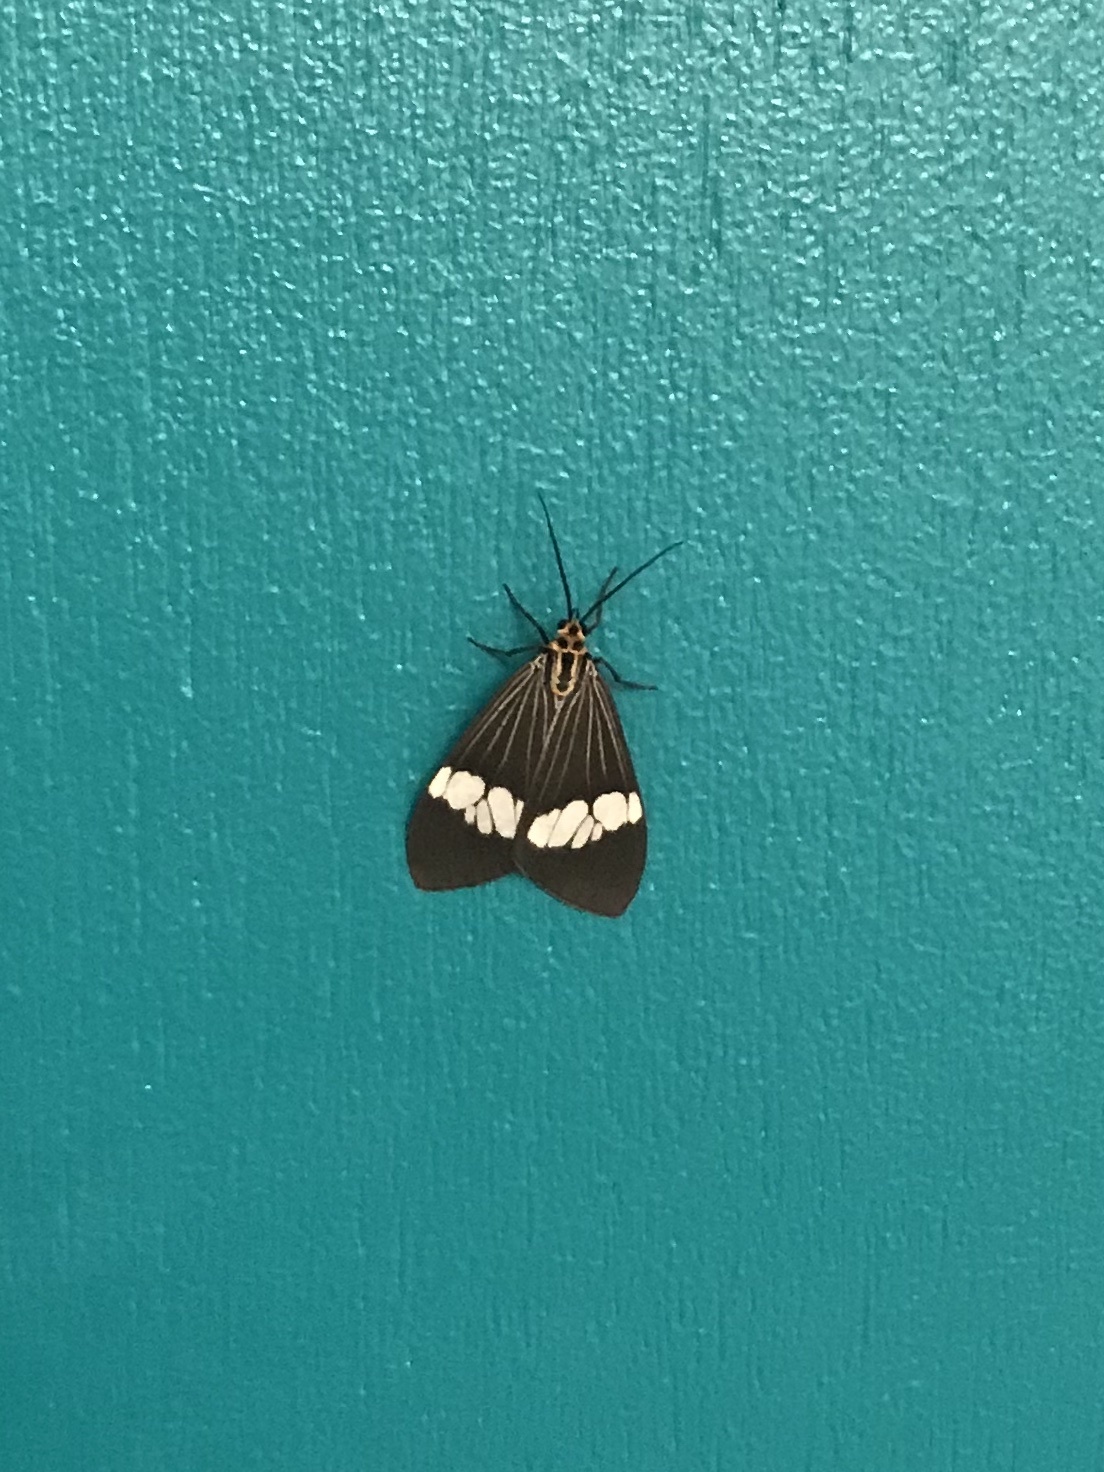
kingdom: Animalia
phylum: Arthropoda
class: Insecta
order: Lepidoptera
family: Erebidae
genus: Nyctemera
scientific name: Nyctemera baulus
